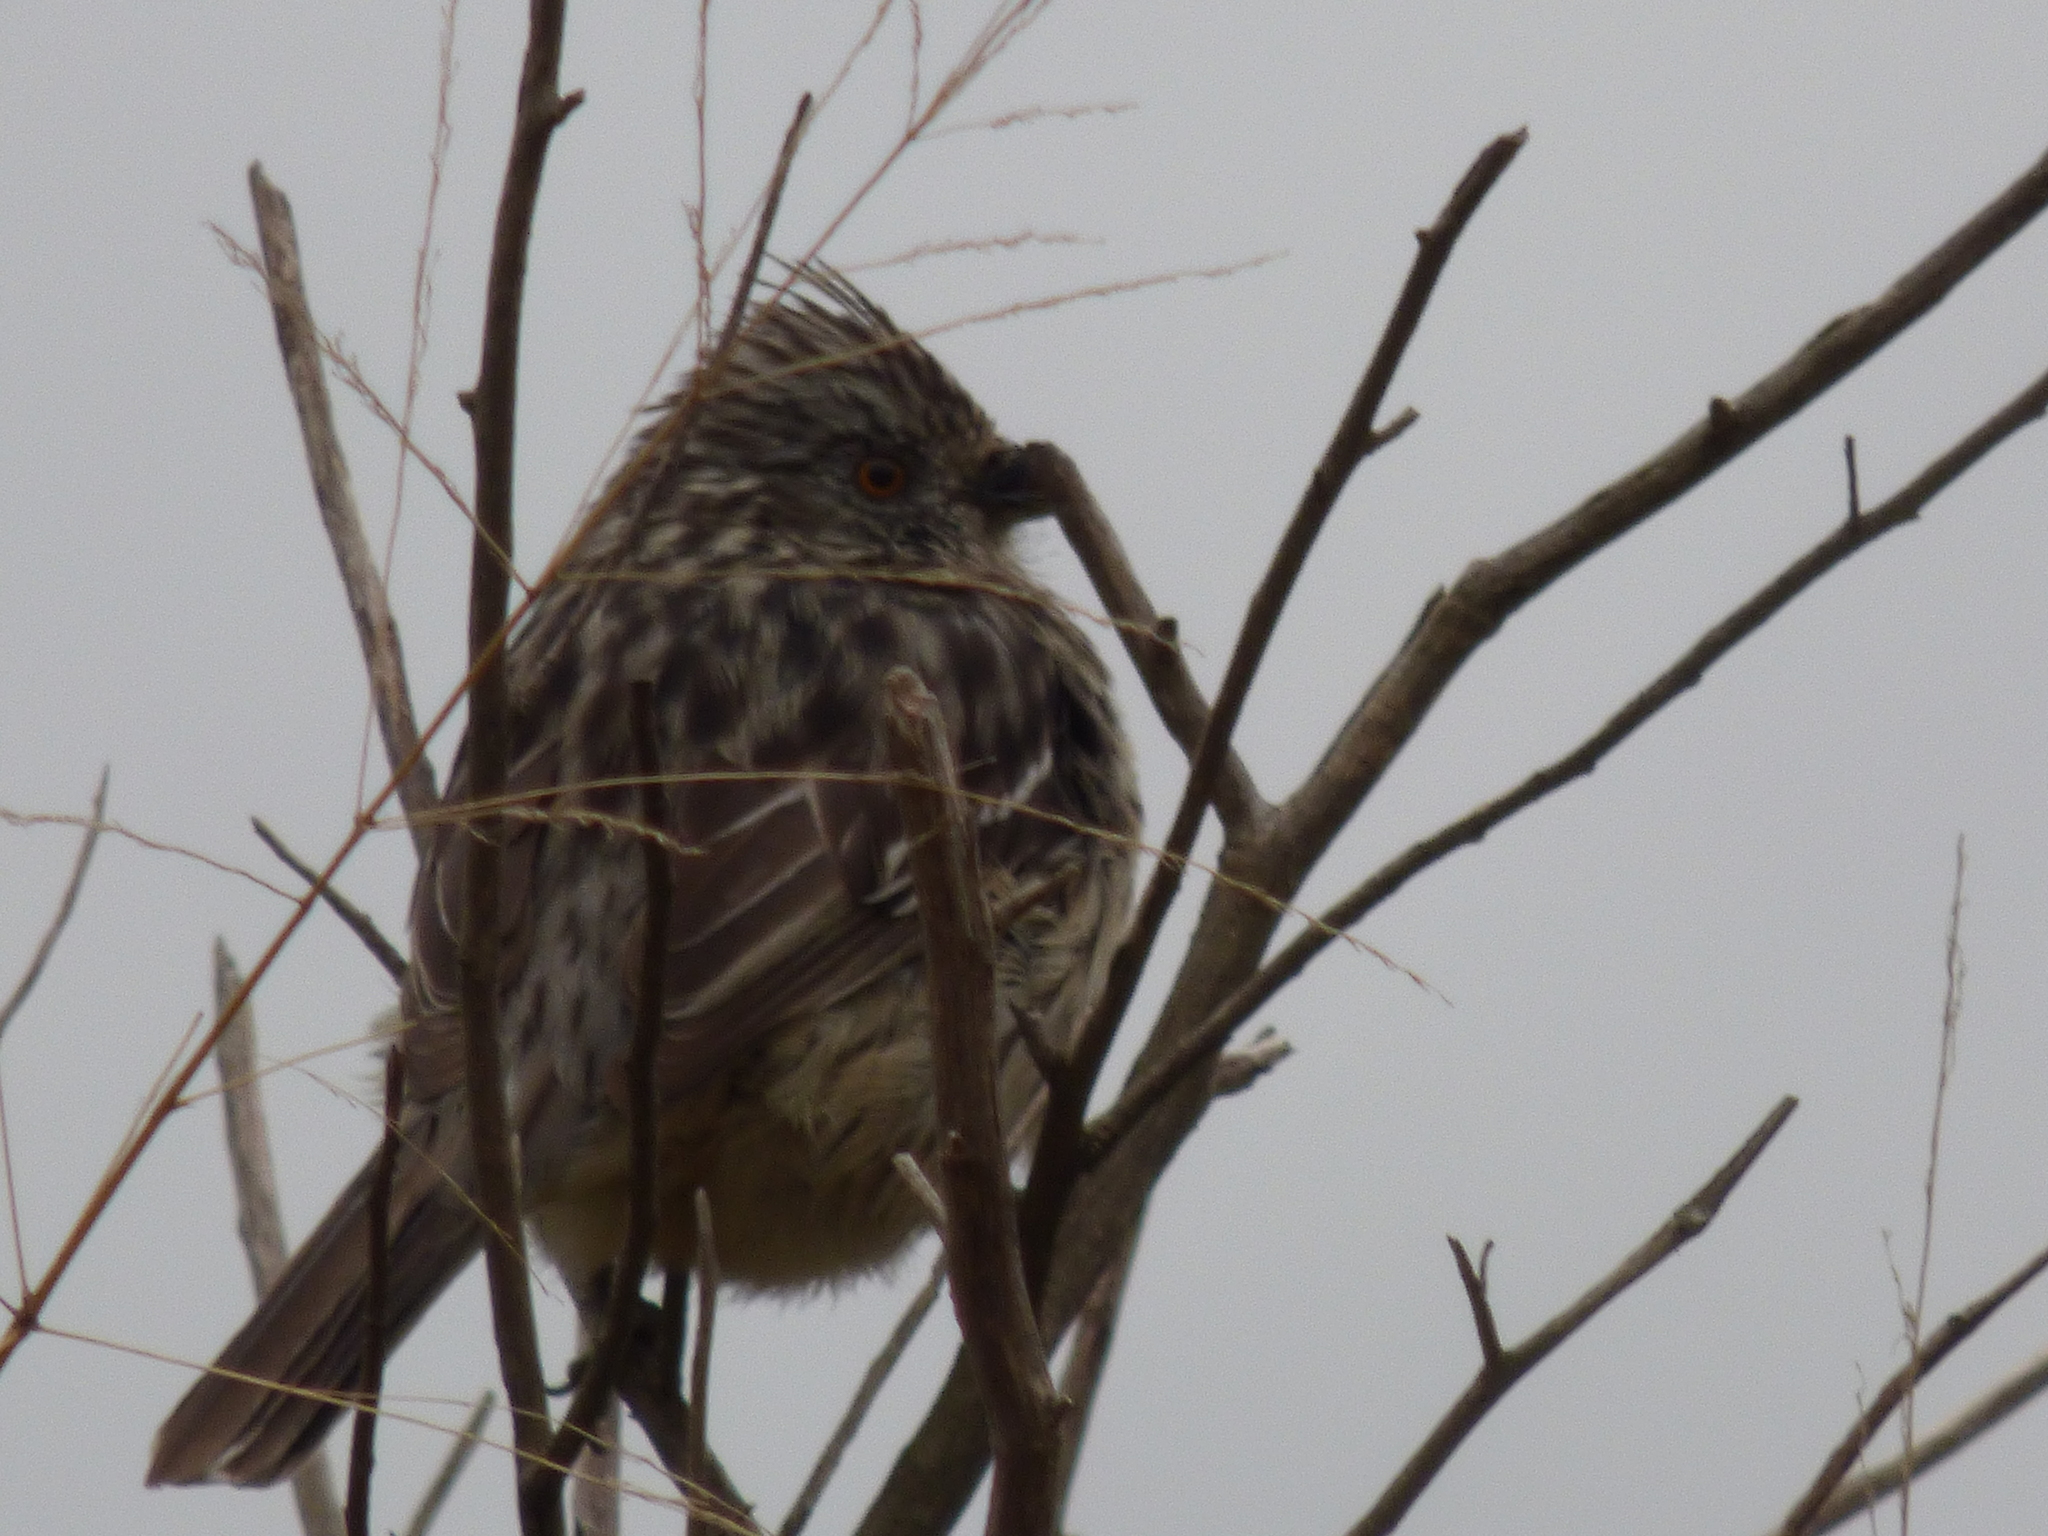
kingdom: Animalia
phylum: Chordata
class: Aves
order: Passeriformes
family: Cotingidae
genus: Phytotoma
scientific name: Phytotoma rutila
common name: White-tipped plantcutter
